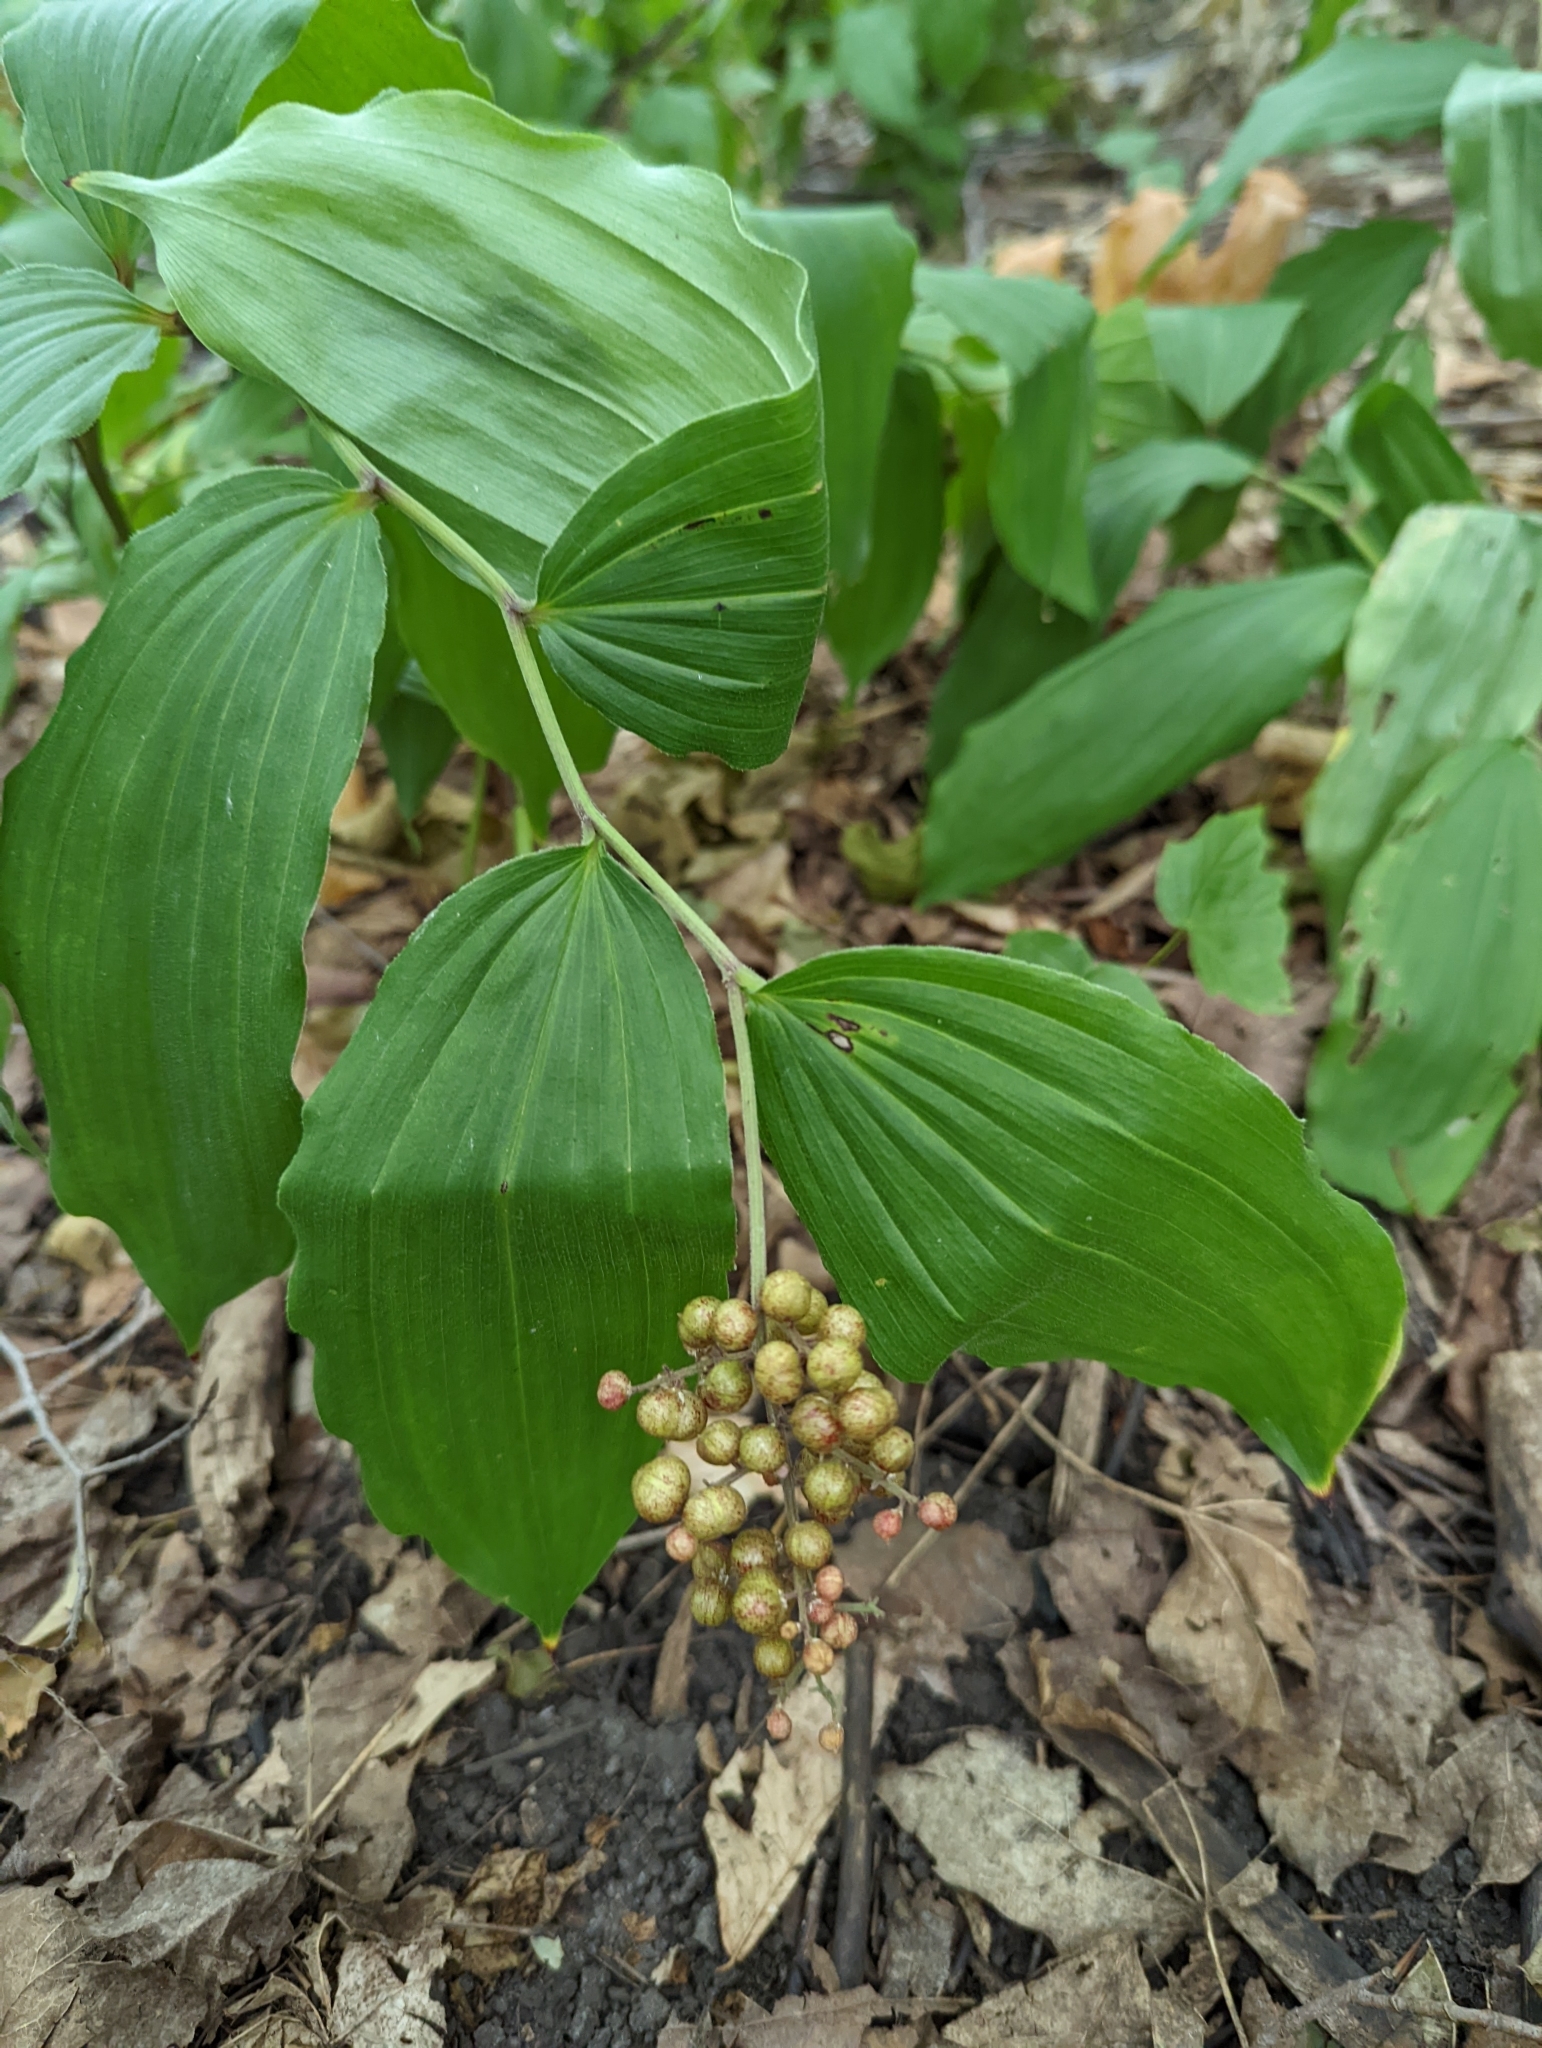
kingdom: Plantae
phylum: Tracheophyta
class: Liliopsida
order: Asparagales
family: Asparagaceae
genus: Maianthemum
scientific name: Maianthemum racemosum
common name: False spikenard
